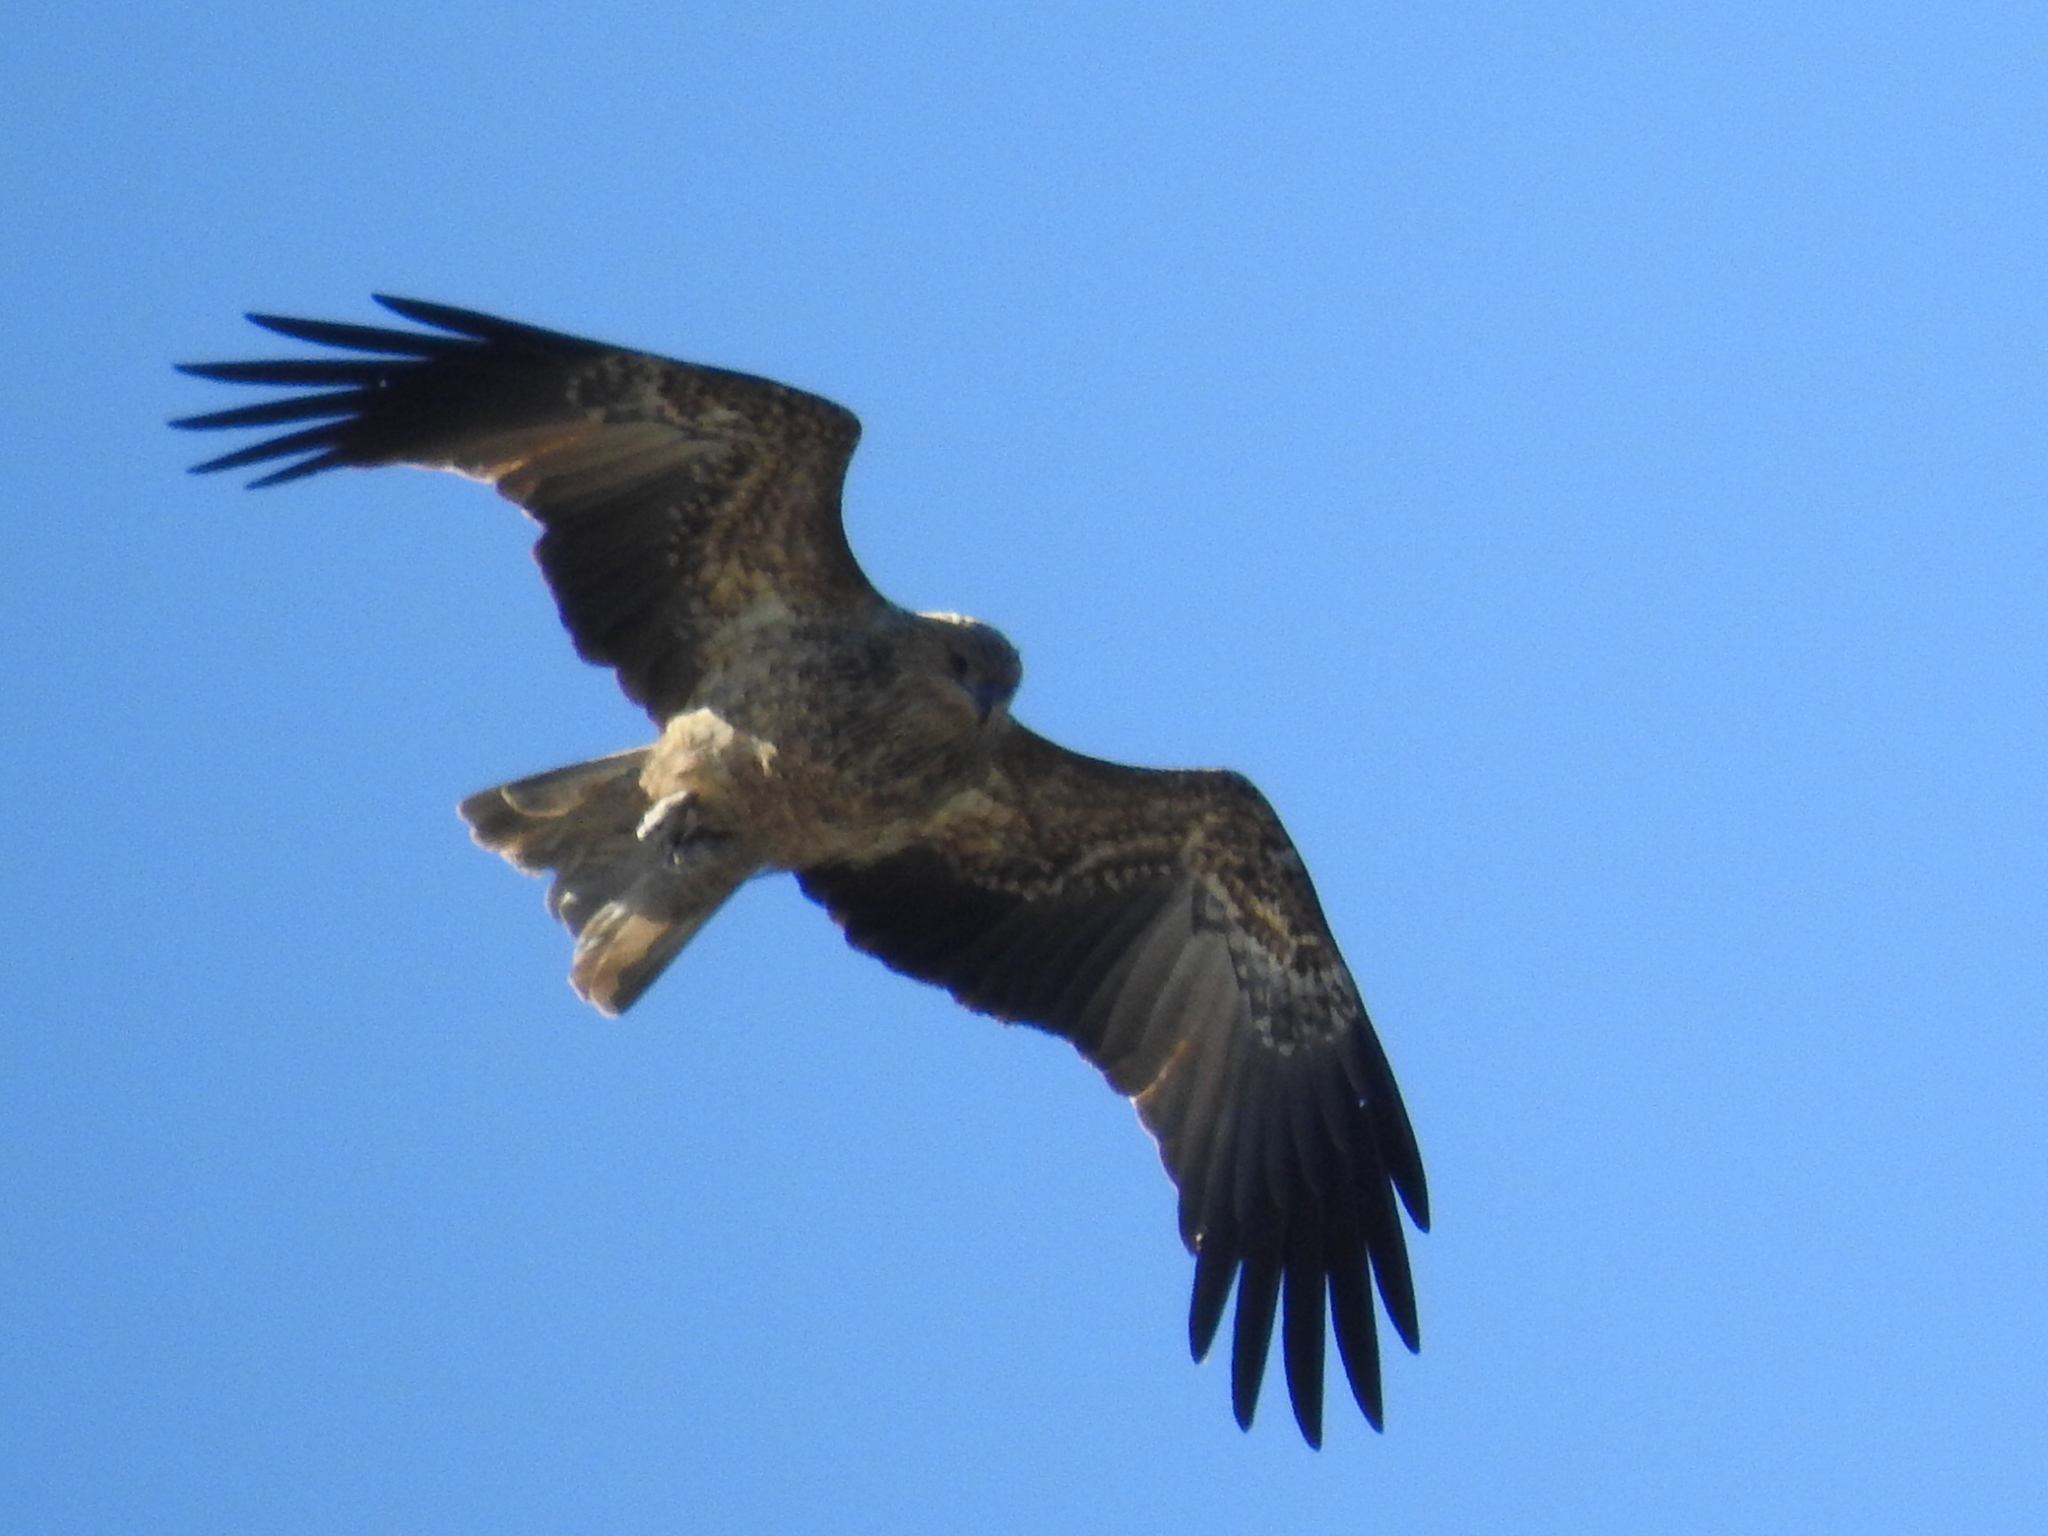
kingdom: Animalia
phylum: Chordata
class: Aves
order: Accipitriformes
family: Accipitridae
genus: Haliastur
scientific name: Haliastur sphenurus
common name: Whistling kite
